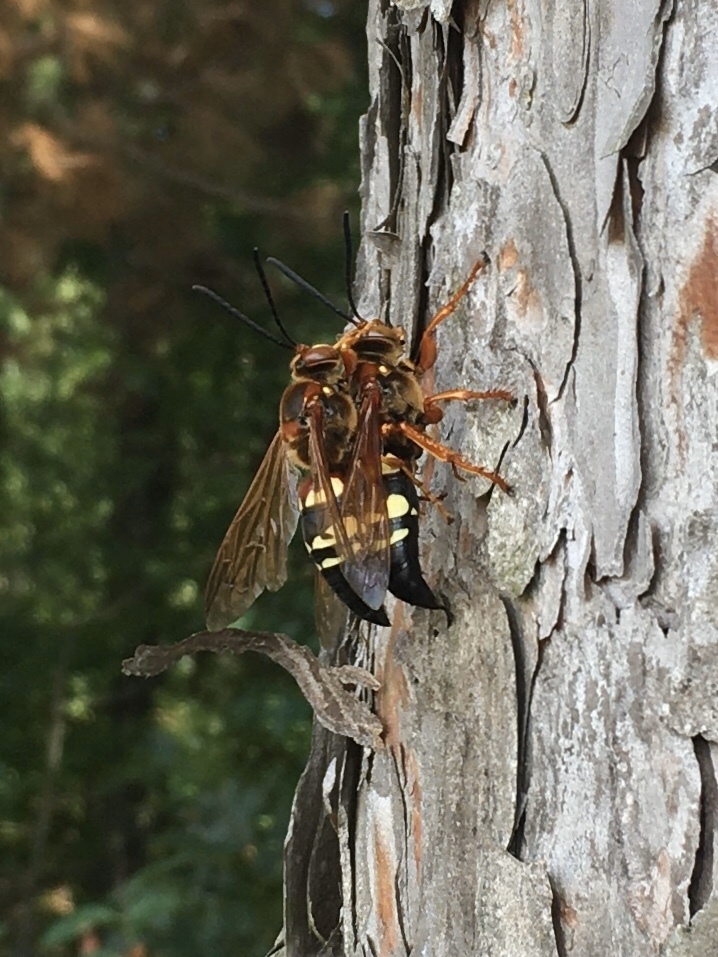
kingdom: Animalia
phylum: Arthropoda
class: Insecta
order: Hymenoptera
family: Crabronidae
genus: Sphecius
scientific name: Sphecius speciosus
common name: Cicada killer
